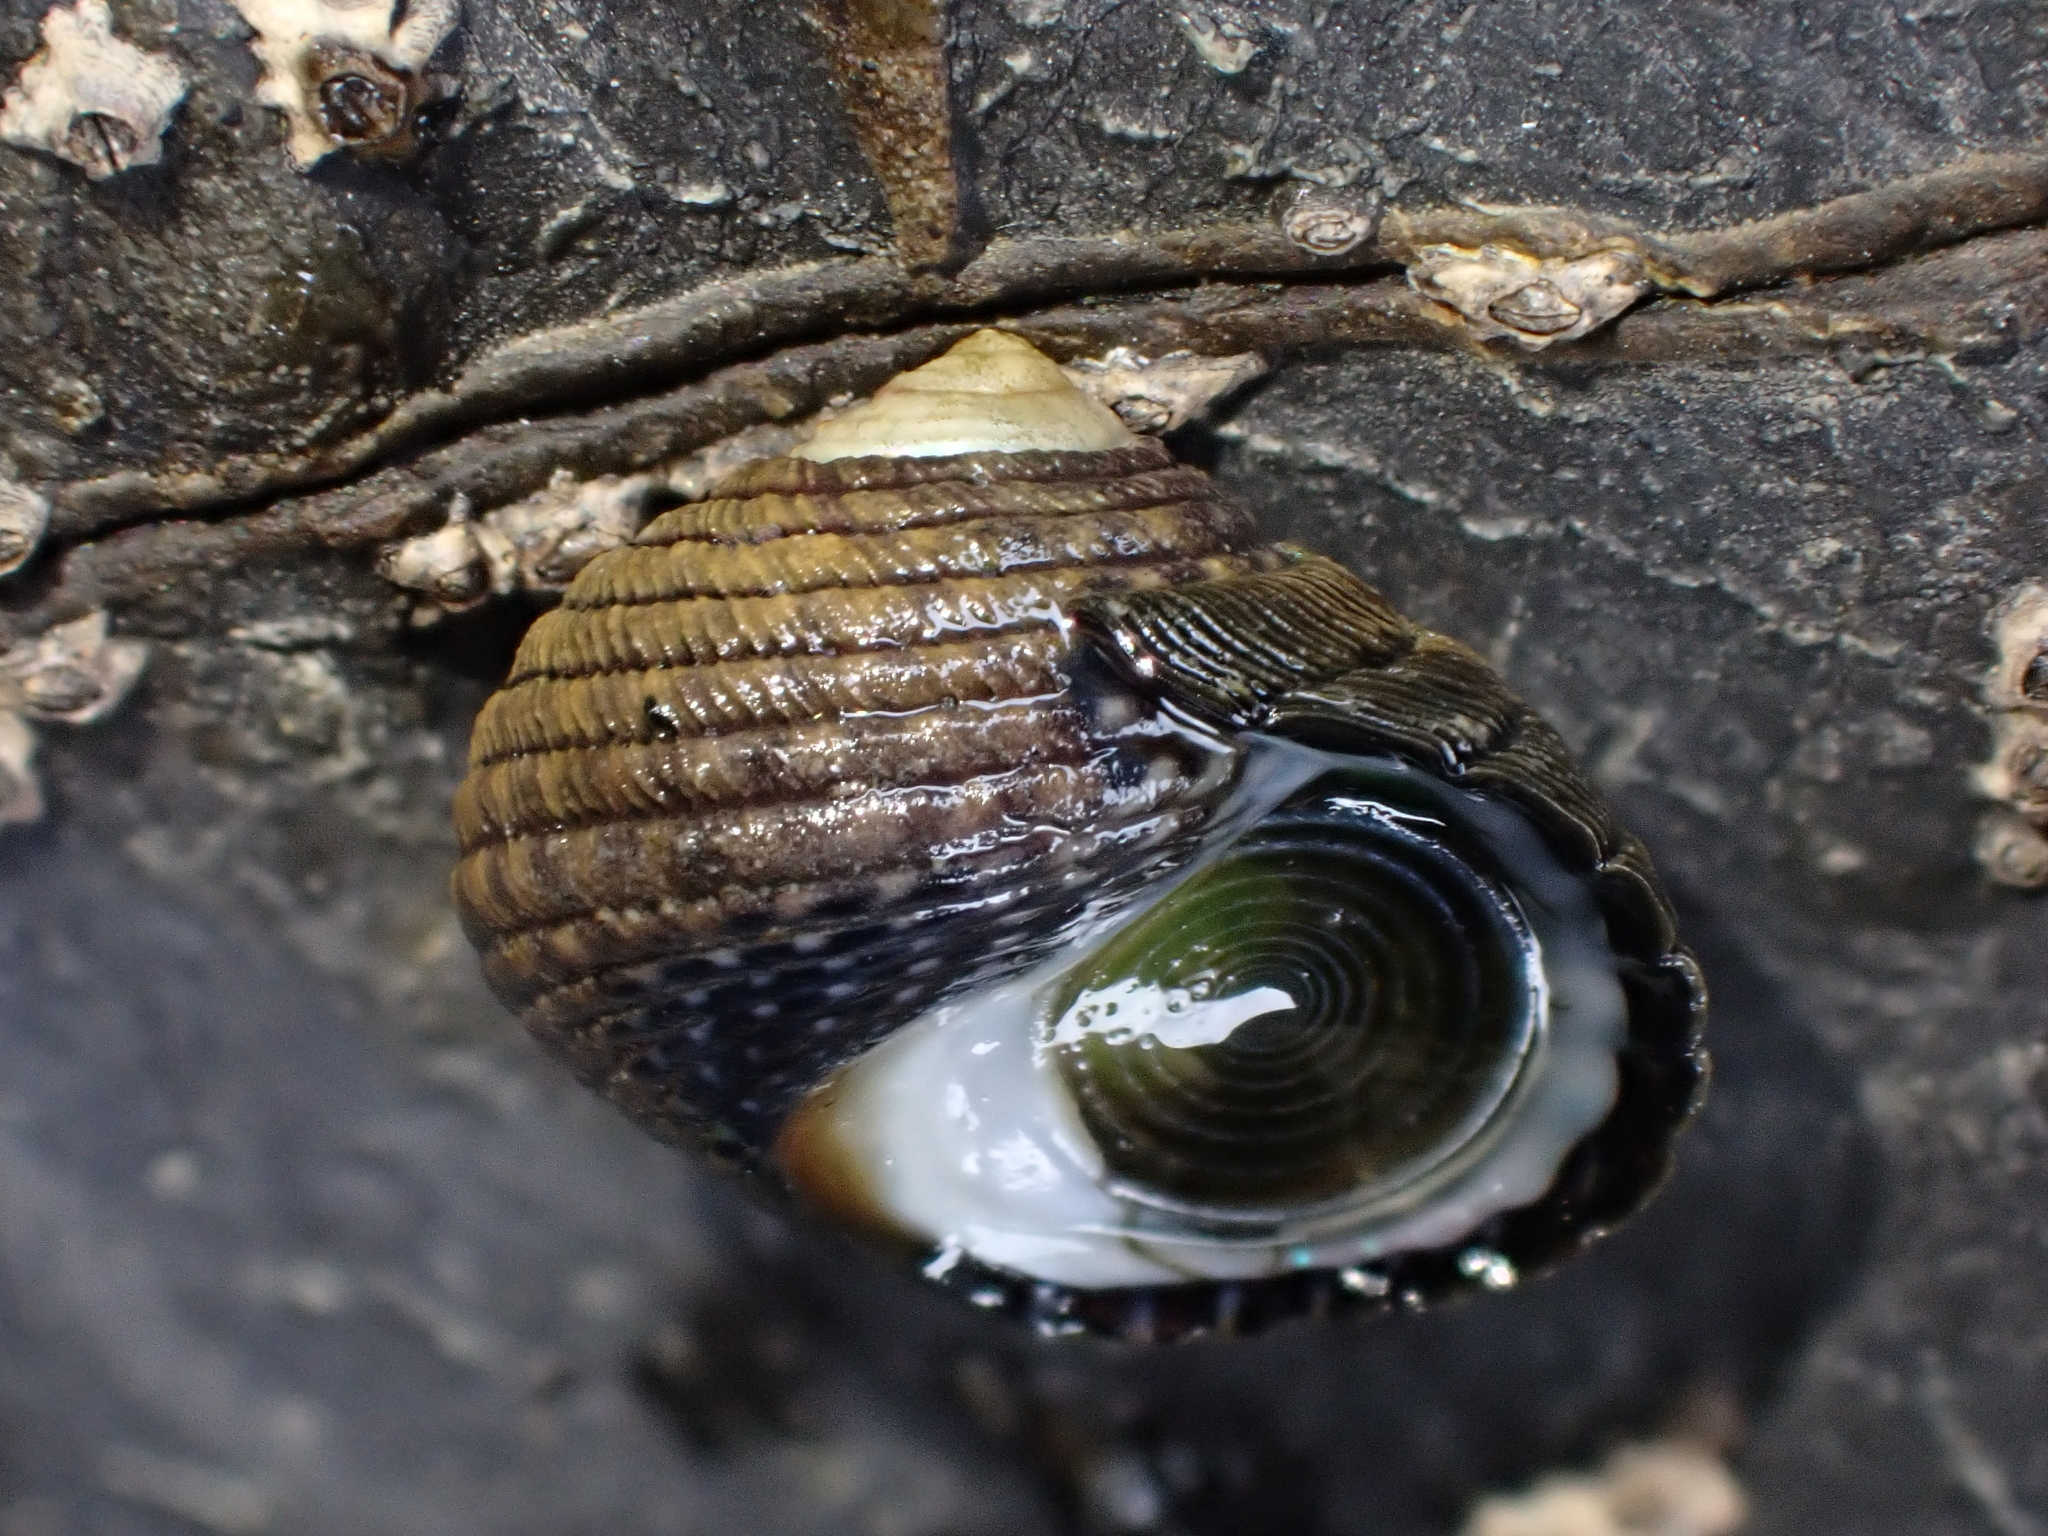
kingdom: Animalia
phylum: Mollusca
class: Gastropoda
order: Trochida
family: Trochidae
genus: Diloma
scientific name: Diloma aethiops
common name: Scorched monodont
